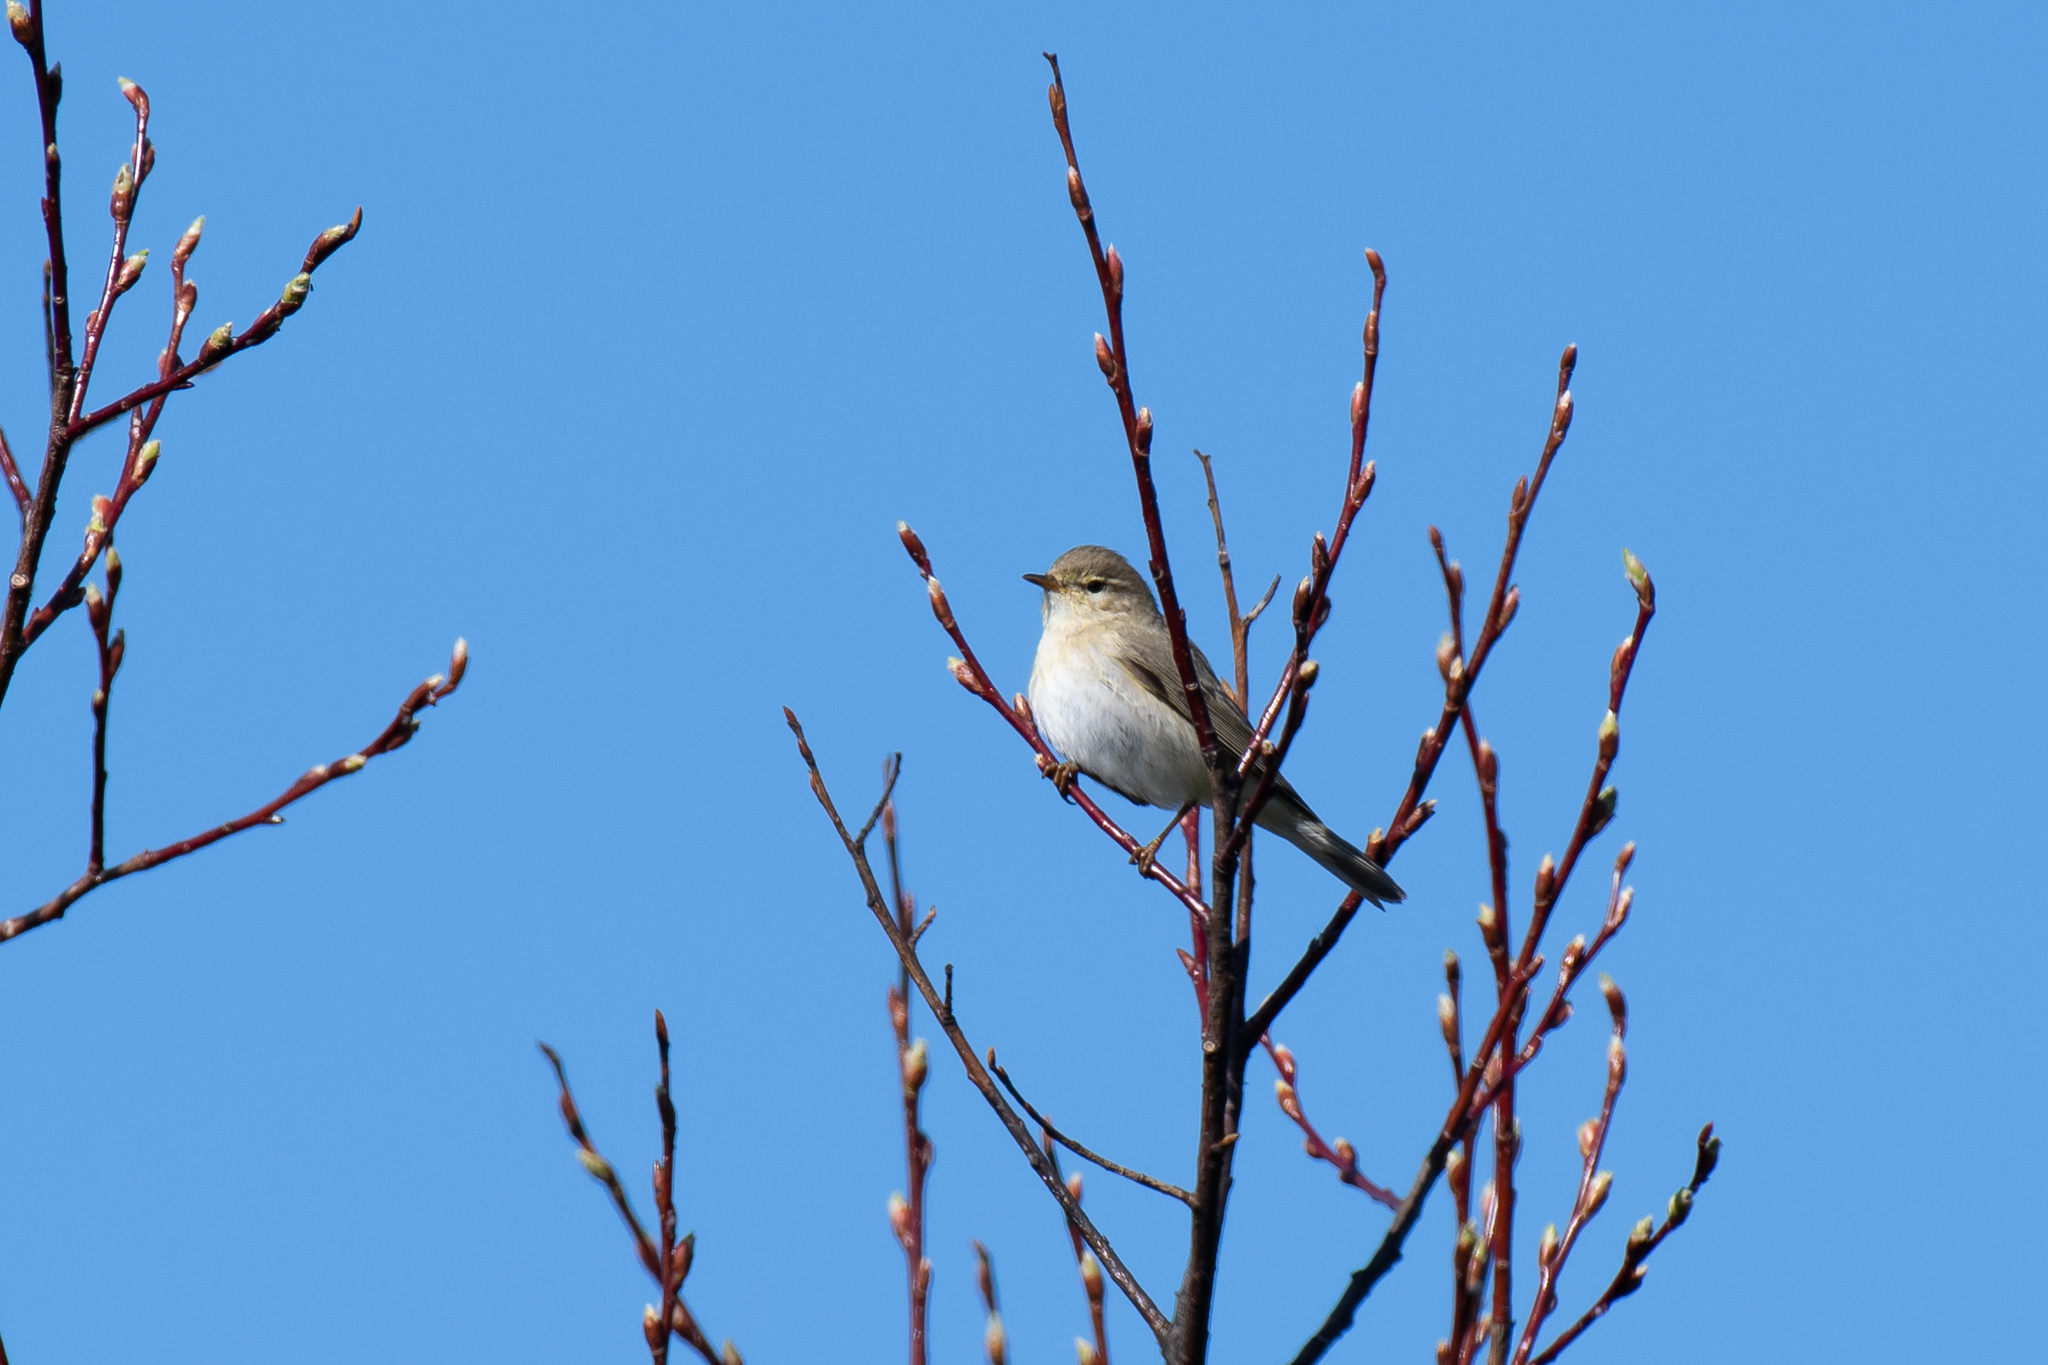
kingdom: Animalia
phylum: Chordata
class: Aves
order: Passeriformes
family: Phylloscopidae
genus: Phylloscopus
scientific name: Phylloscopus trochilus
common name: Willow warbler
